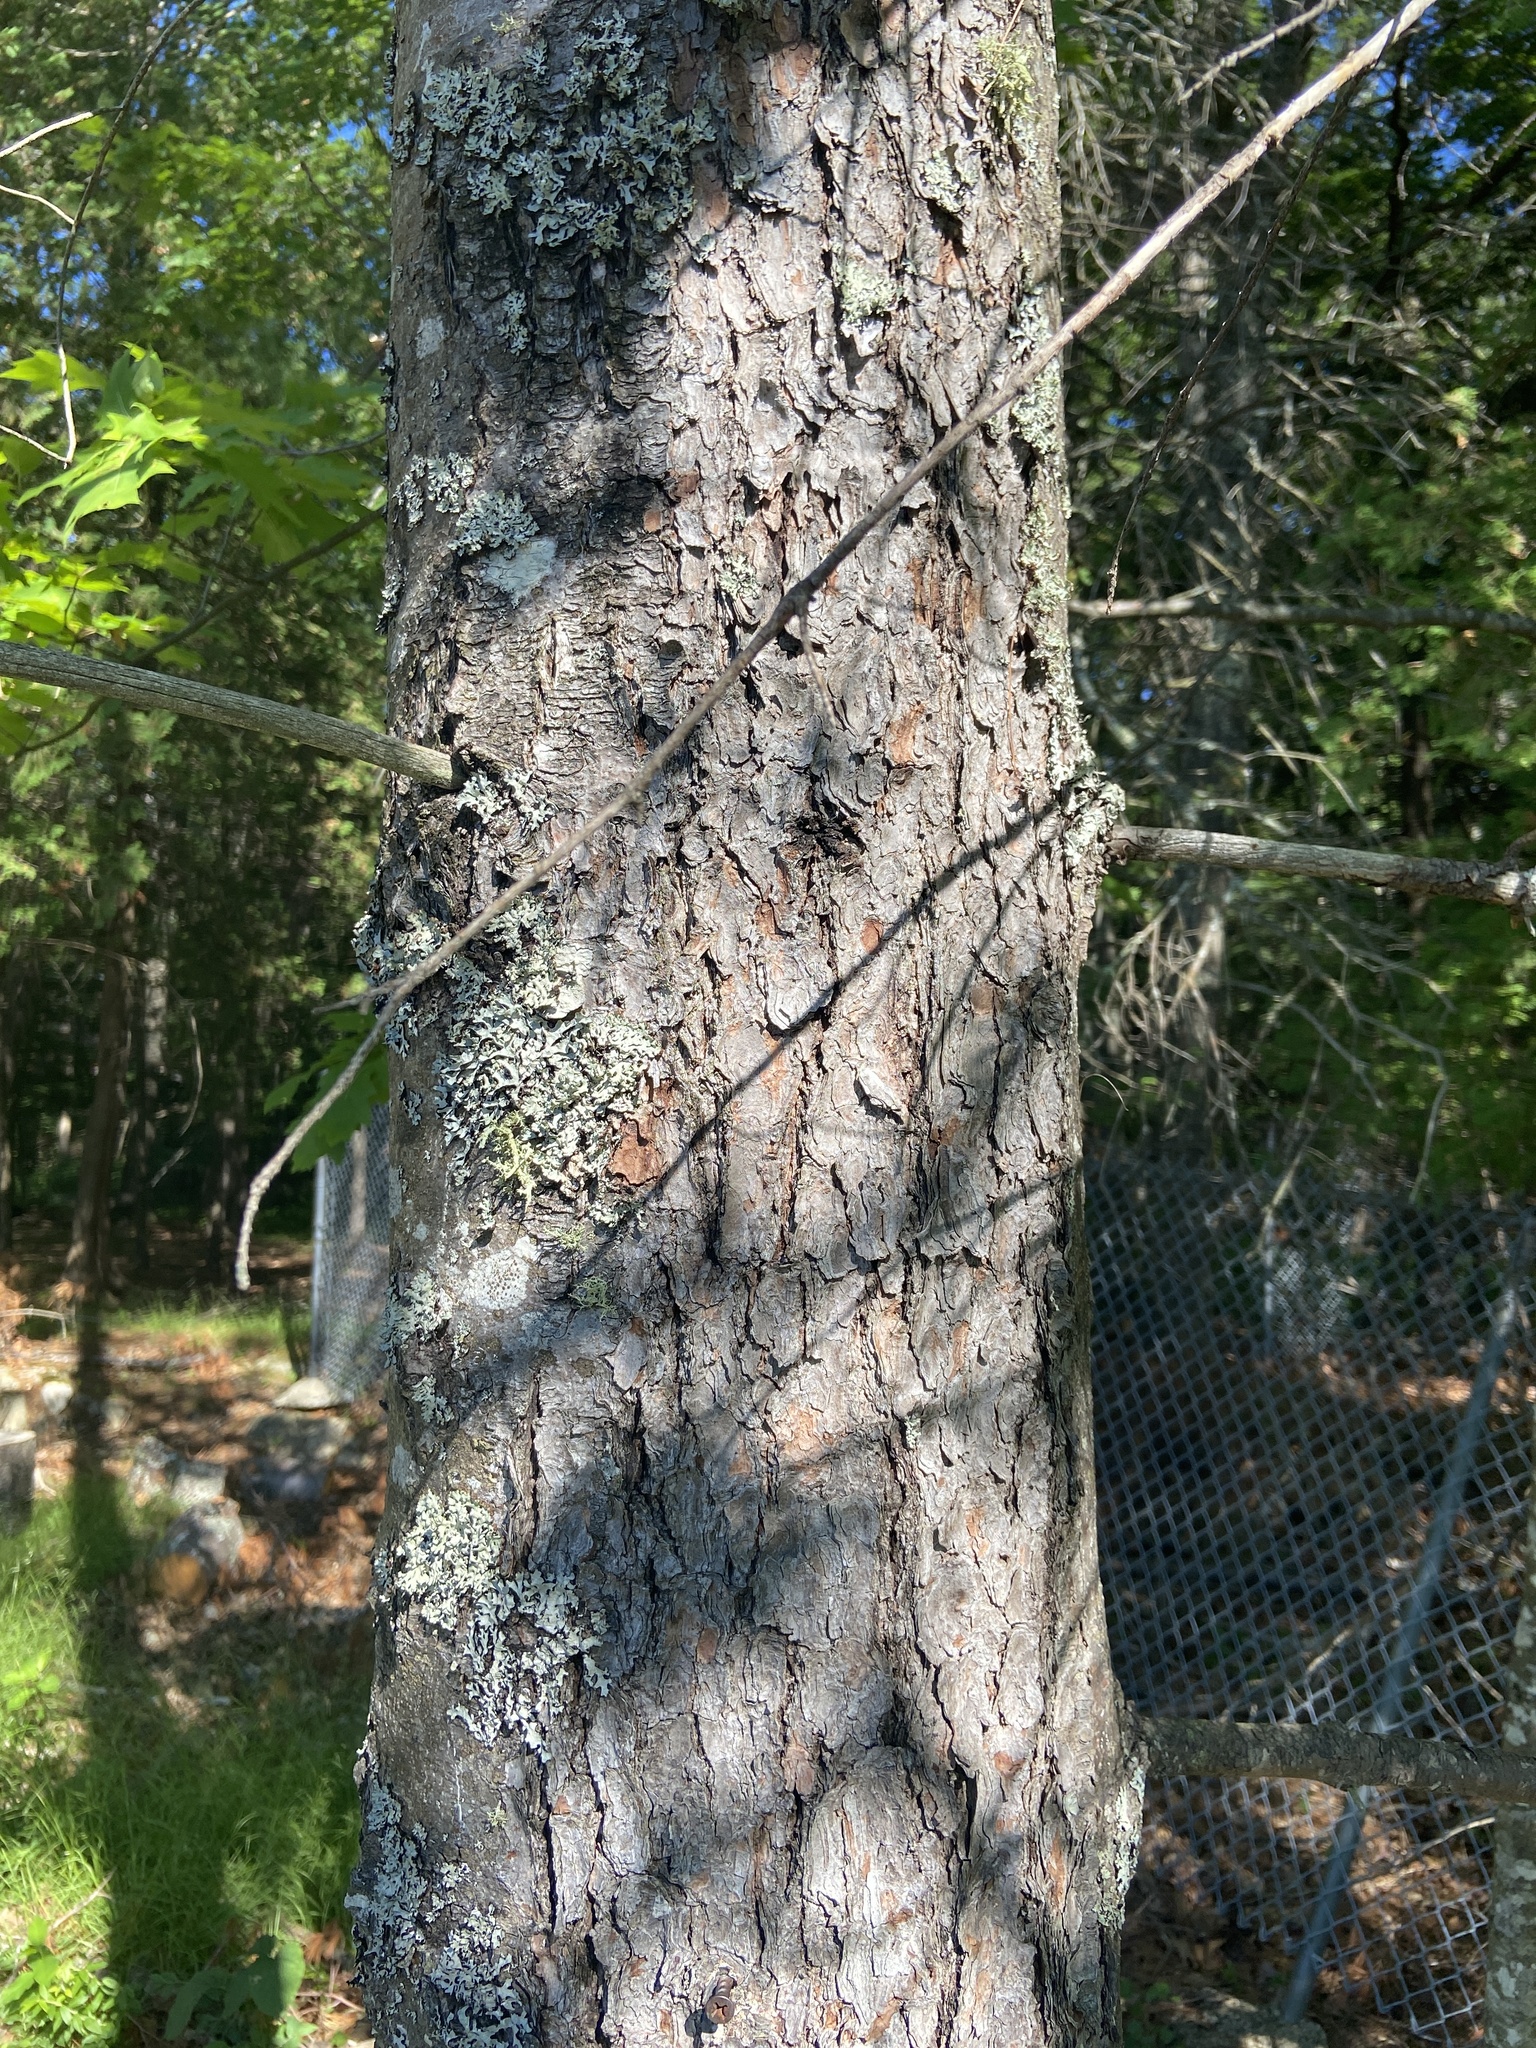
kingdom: Plantae
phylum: Tracheophyta
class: Pinopsida
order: Pinales
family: Pinaceae
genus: Pinus
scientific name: Pinus strobus
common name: Weymouth pine
